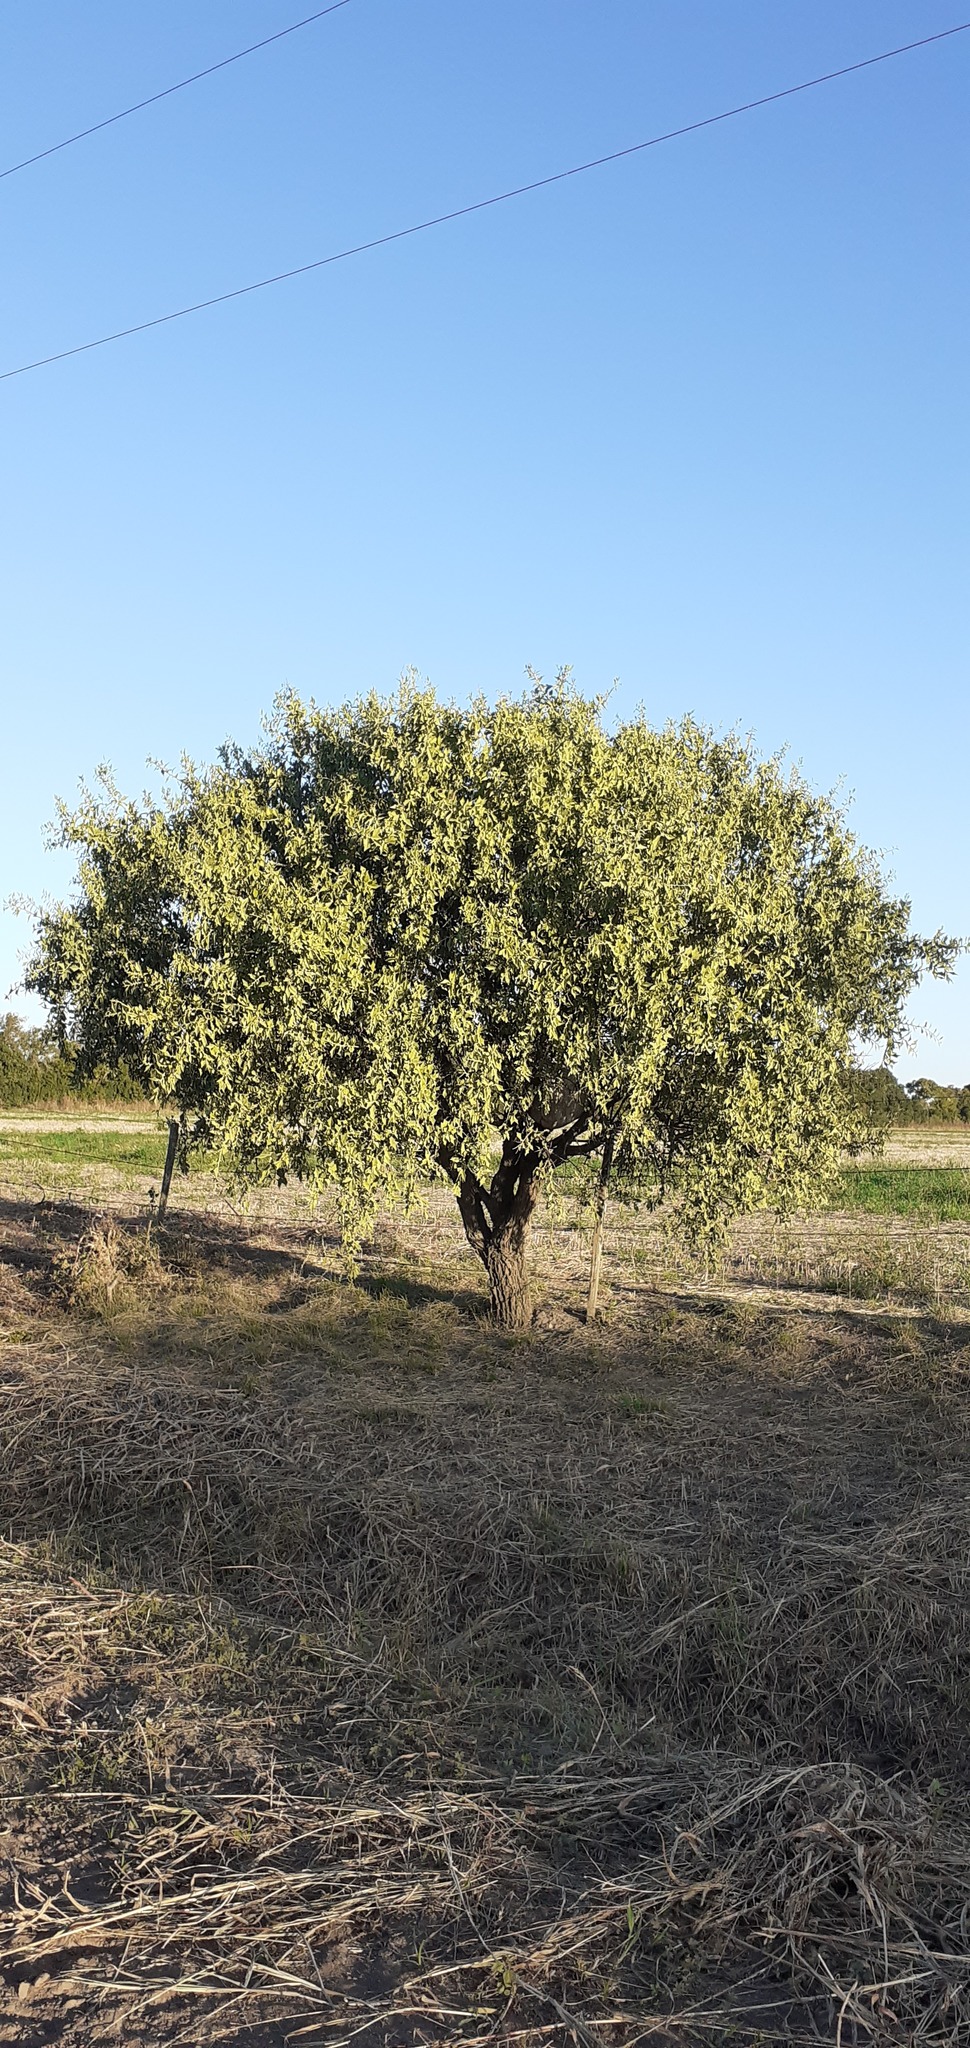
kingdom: Plantae
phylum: Tracheophyta
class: Magnoliopsida
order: Santalales
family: Cervantesiaceae
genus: Jodina
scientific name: Jodina rhombifolia
